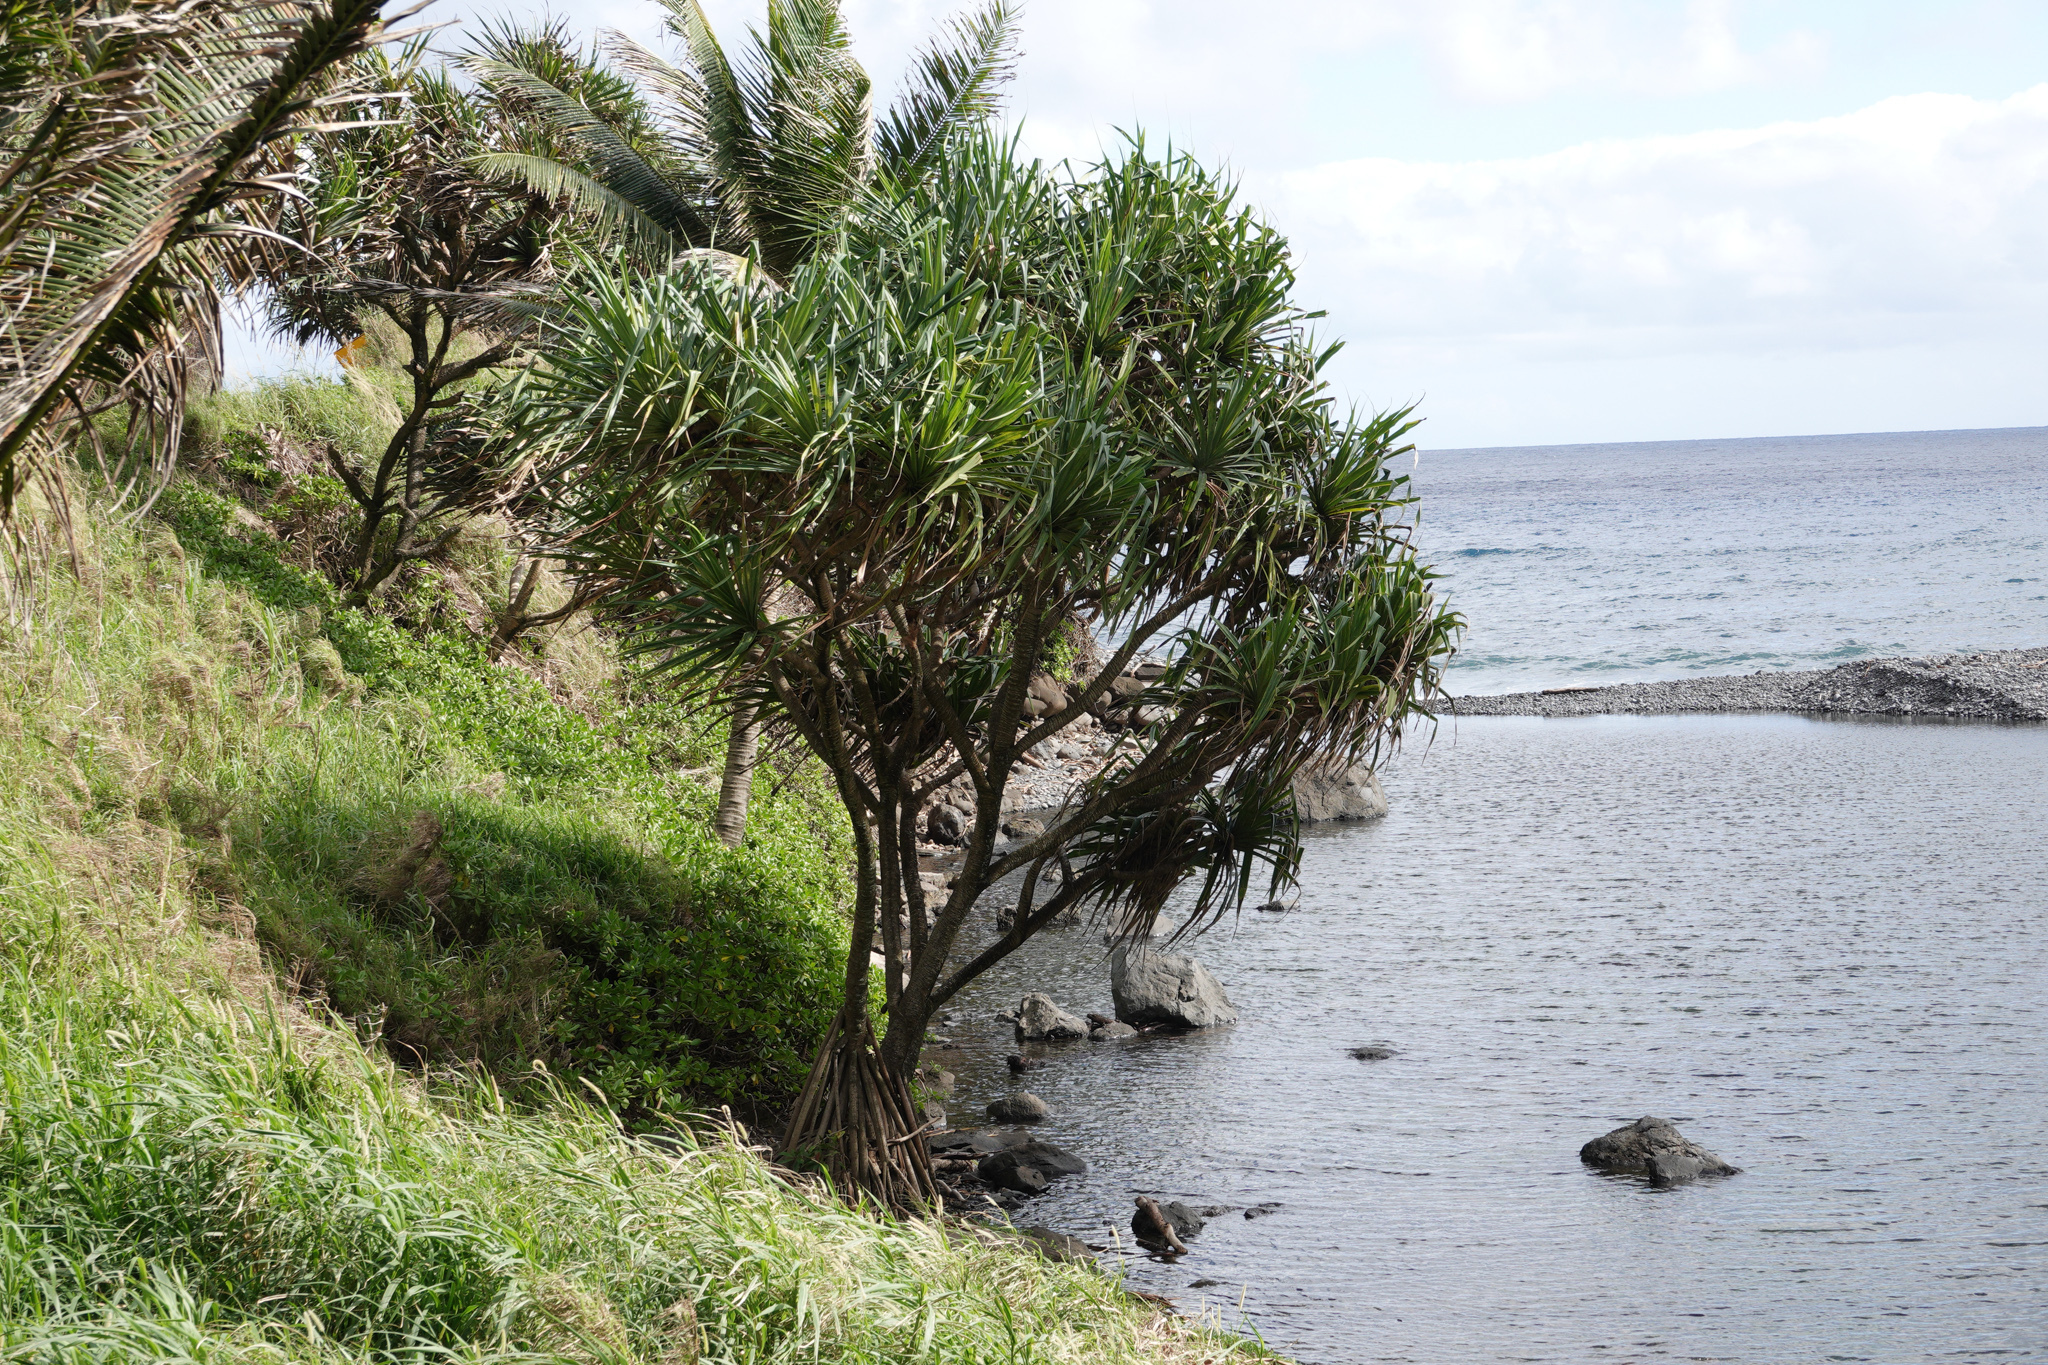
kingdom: Plantae
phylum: Tracheophyta
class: Liliopsida
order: Pandanales
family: Pandanaceae
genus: Pandanus
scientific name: Pandanus tectorius
